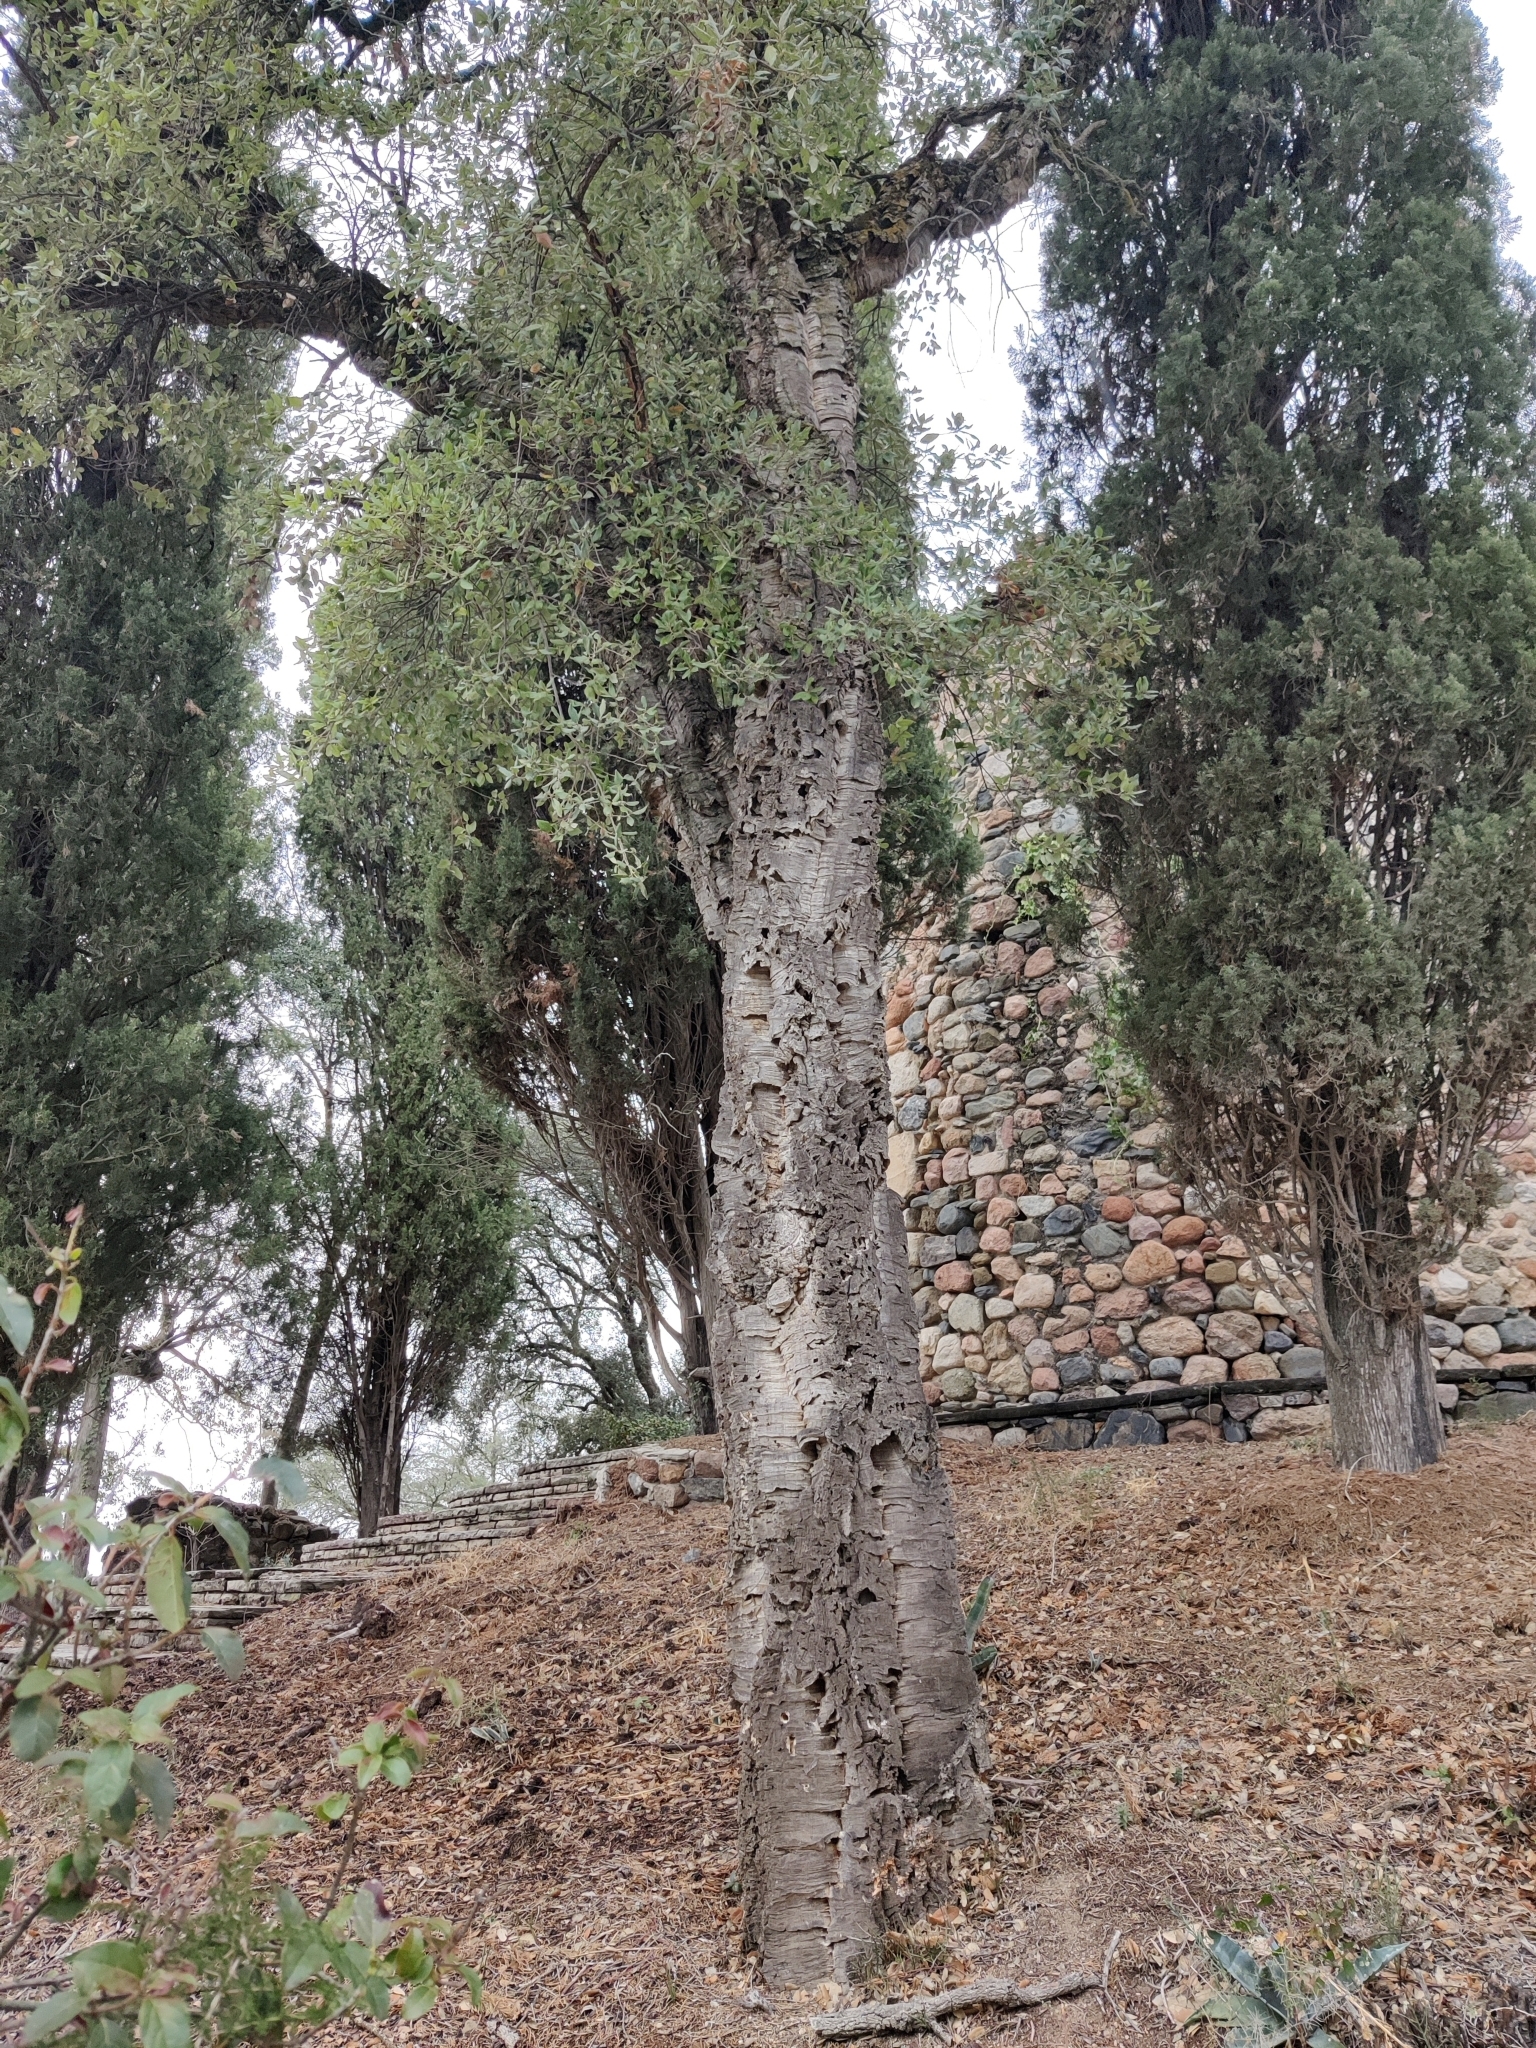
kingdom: Plantae
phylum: Tracheophyta
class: Magnoliopsida
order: Fagales
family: Fagaceae
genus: Quercus
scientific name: Quercus suber
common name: Cork oak
